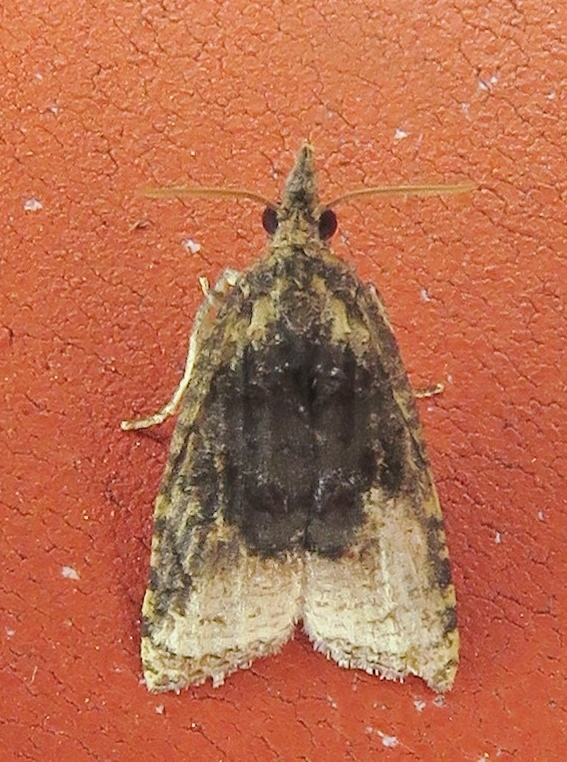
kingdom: Animalia
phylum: Arthropoda
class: Insecta
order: Lepidoptera
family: Tortricidae
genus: Platynota
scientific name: Platynota flavedana
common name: Black-shaded platynota moth
